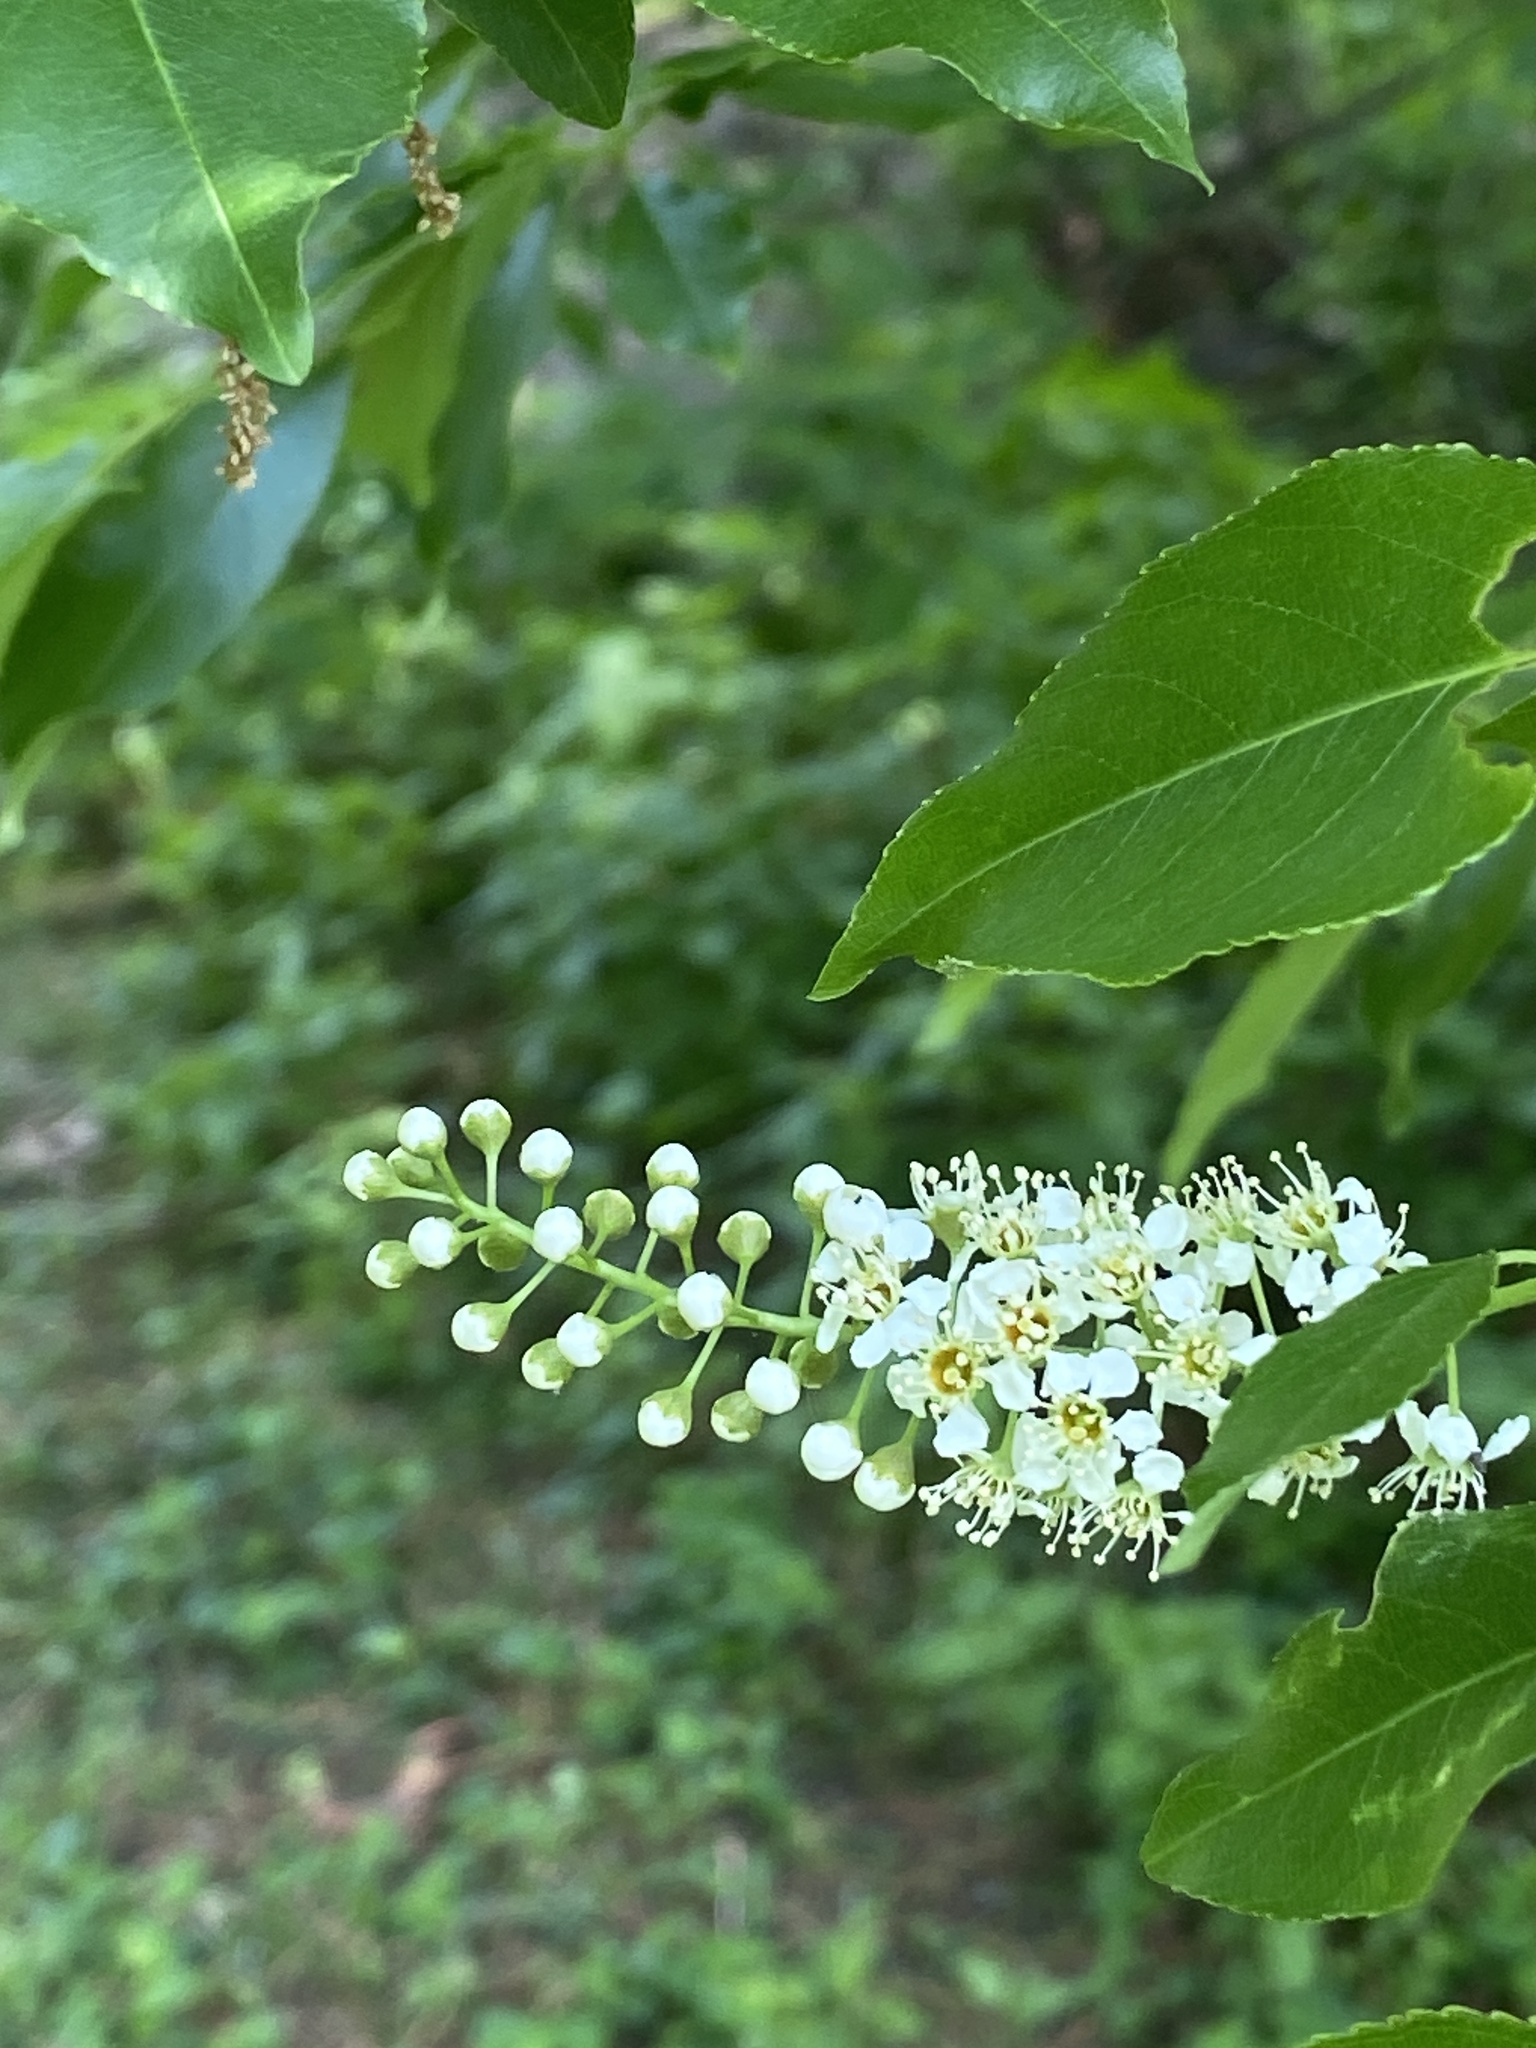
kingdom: Plantae
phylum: Tracheophyta
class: Magnoliopsida
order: Rosales
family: Rosaceae
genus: Prunus
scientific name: Prunus serotina
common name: Black cherry
